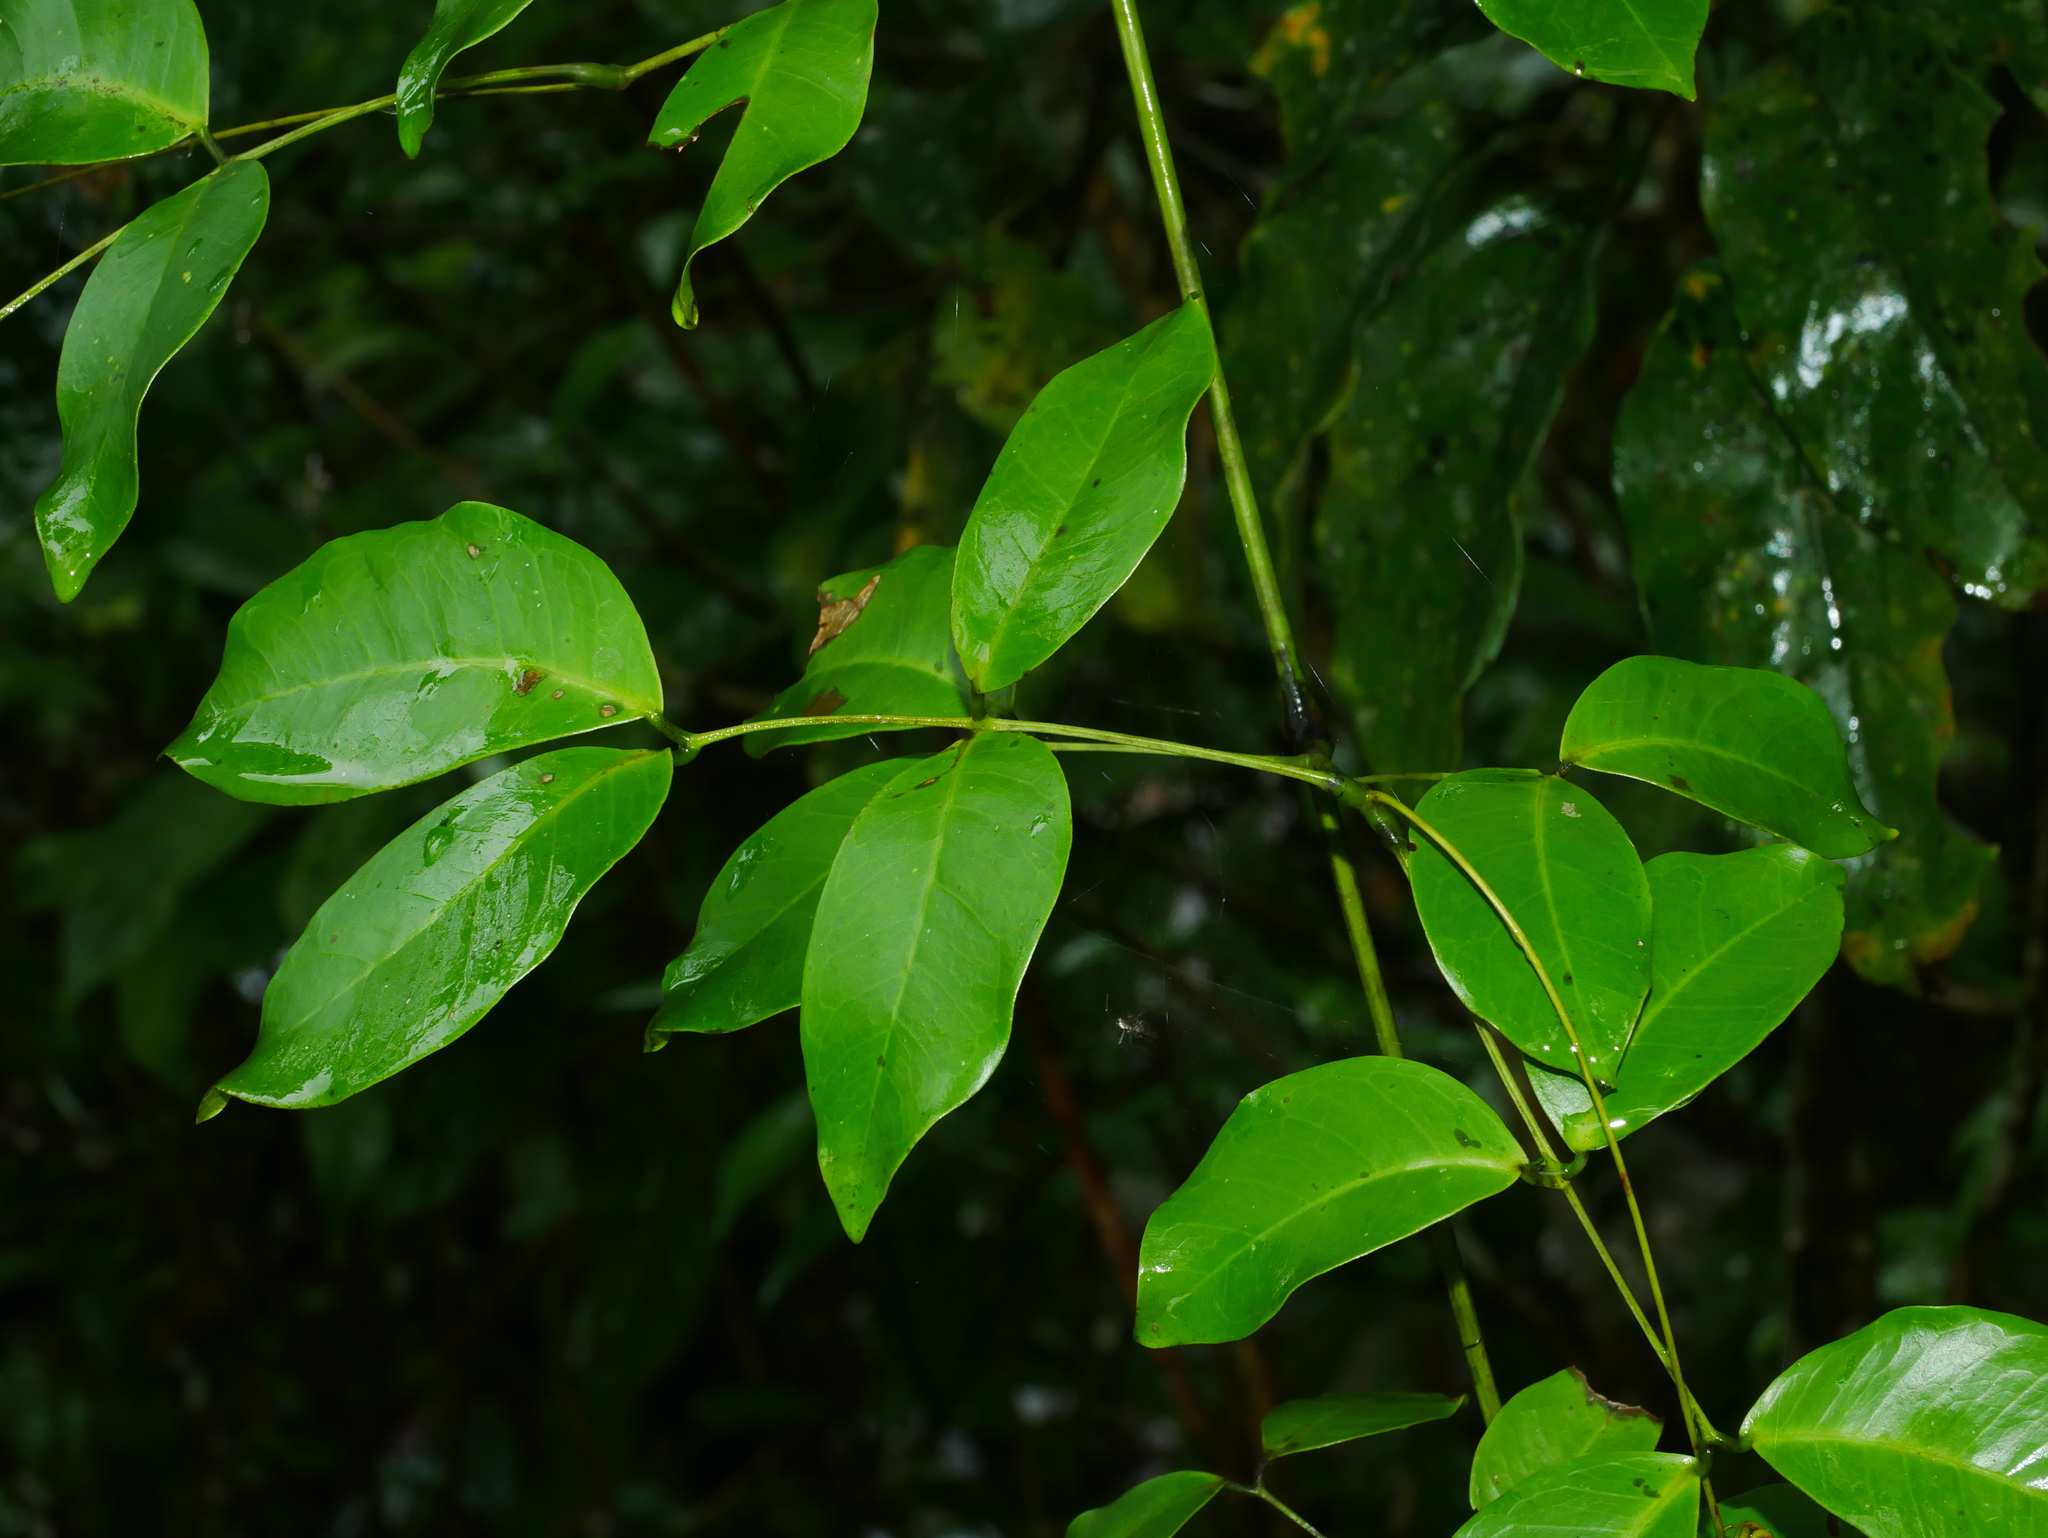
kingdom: Plantae
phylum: Tracheophyta
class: Magnoliopsida
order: Fabales
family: Fabaceae
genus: Entada
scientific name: Entada tonkinensis
